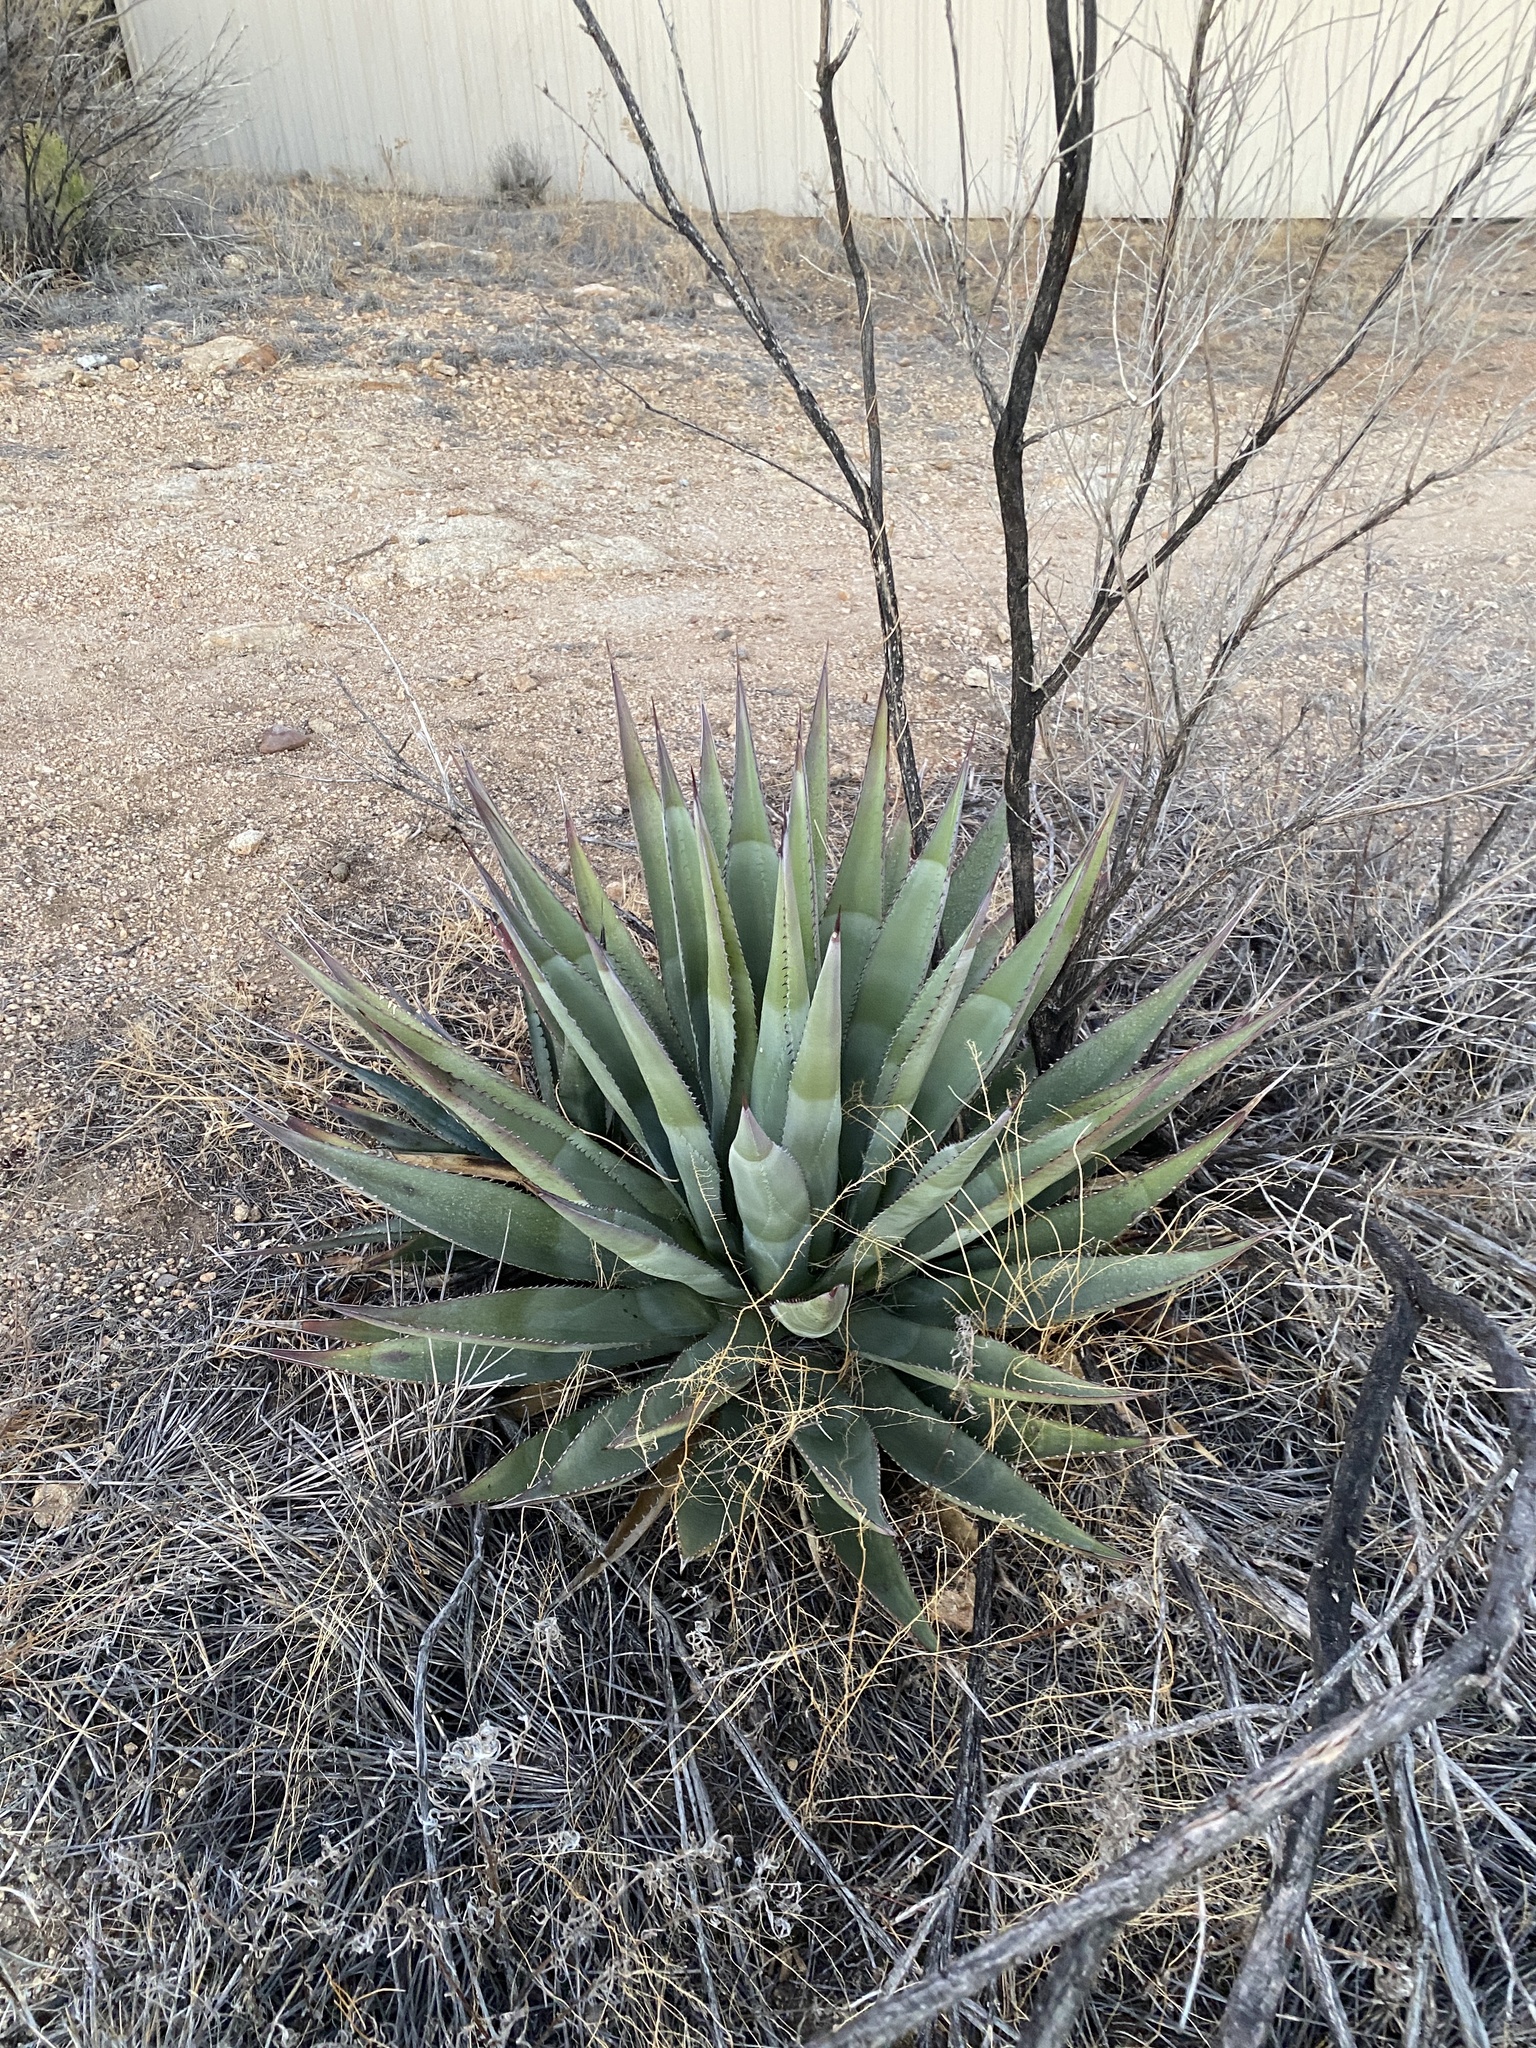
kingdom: Plantae
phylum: Tracheophyta
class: Liliopsida
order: Asparagales
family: Asparagaceae
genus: Agave
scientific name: Agave palmeri
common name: Palmer agave
